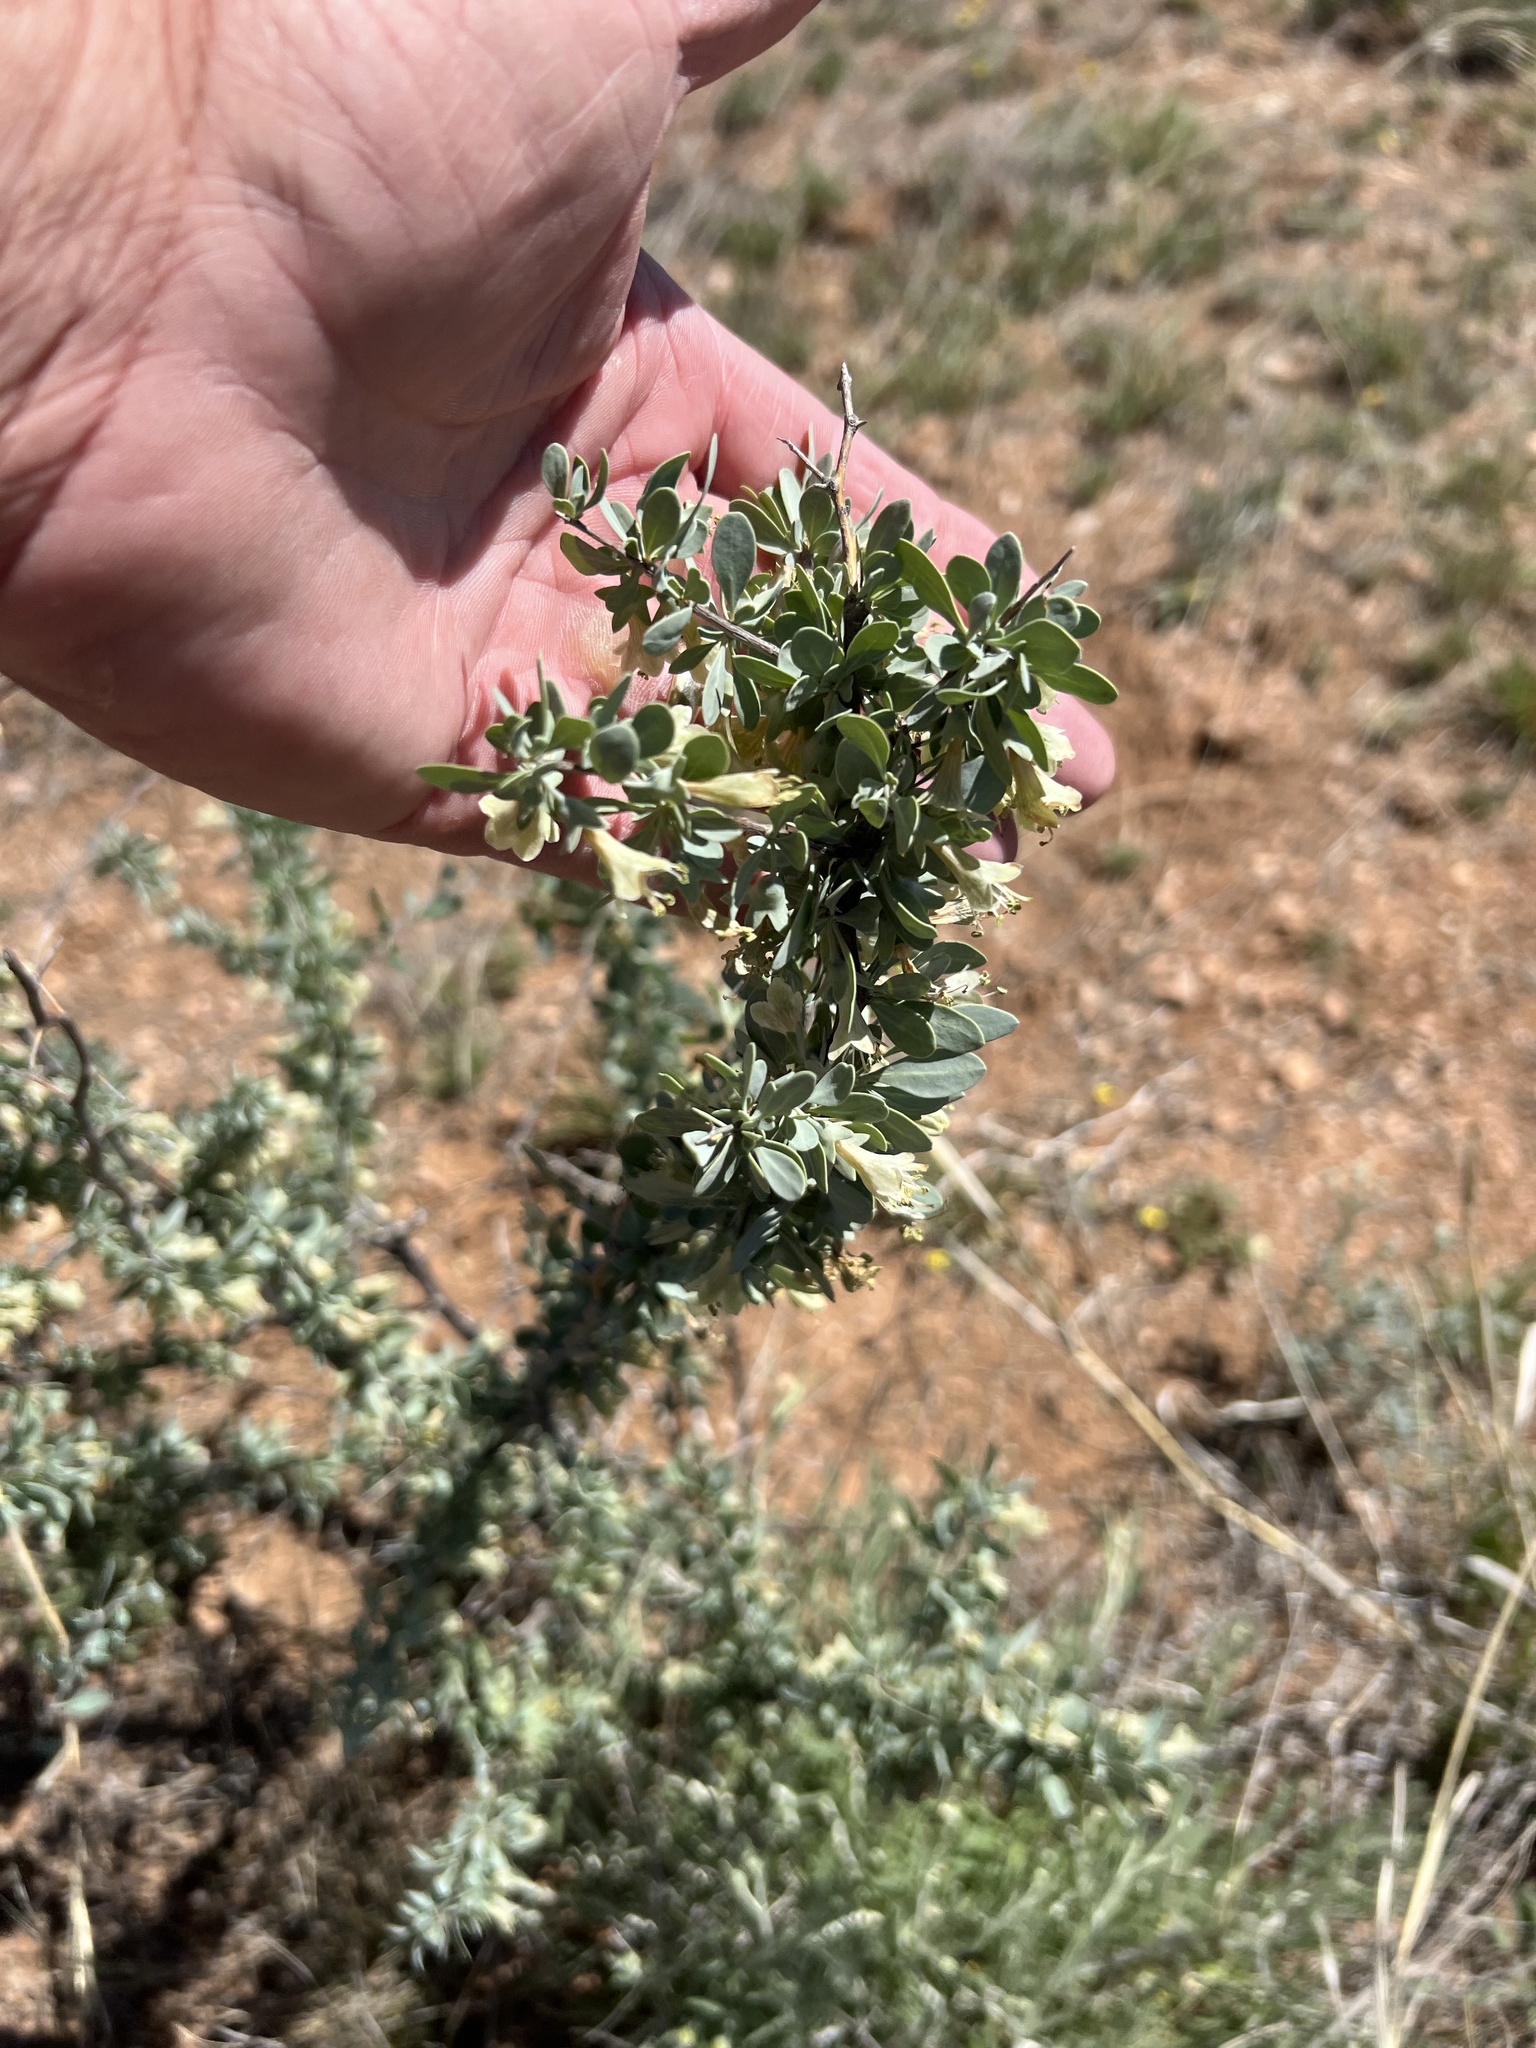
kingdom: Plantae
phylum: Tracheophyta
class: Magnoliopsida
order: Solanales
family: Solanaceae
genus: Lycium
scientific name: Lycium pallidum
